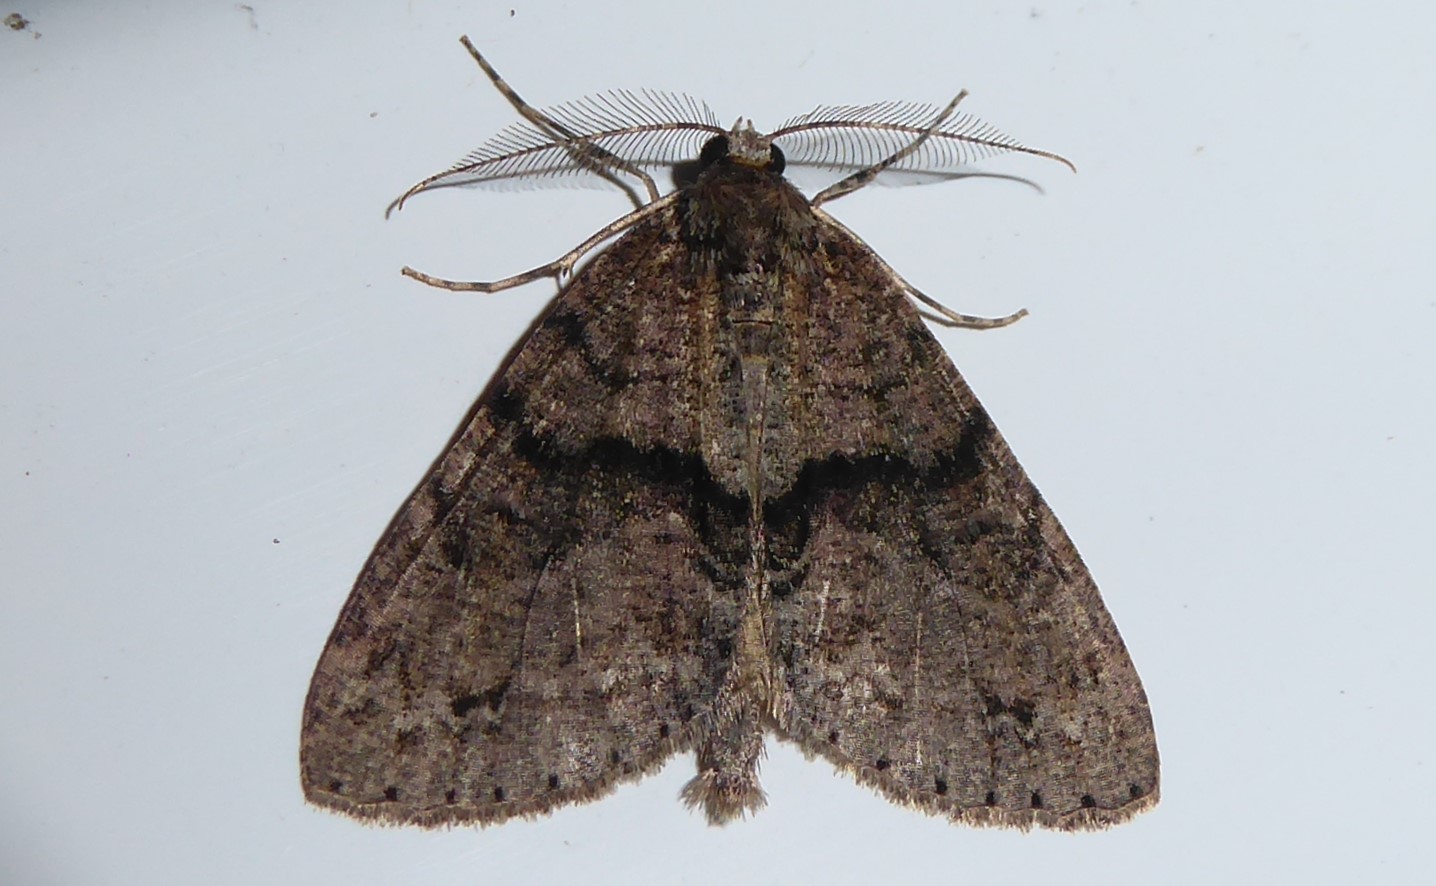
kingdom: Animalia
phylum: Arthropoda
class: Insecta
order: Lepidoptera
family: Geometridae
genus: Pseudocoremia
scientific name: Pseudocoremia suavis
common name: Common forest looper
